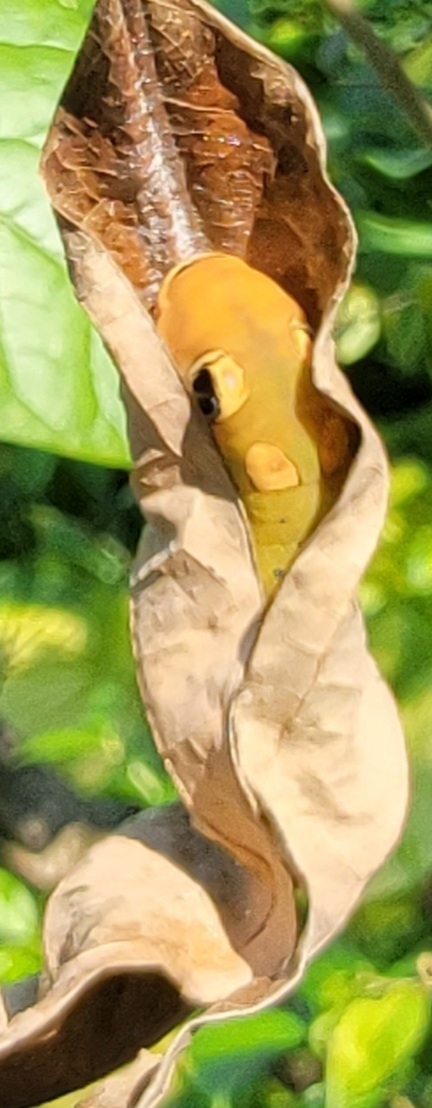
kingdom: Animalia
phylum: Arthropoda
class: Insecta
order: Lepidoptera
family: Papilionidae
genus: Papilio
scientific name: Papilio troilus
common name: Spicebush swallowtail
